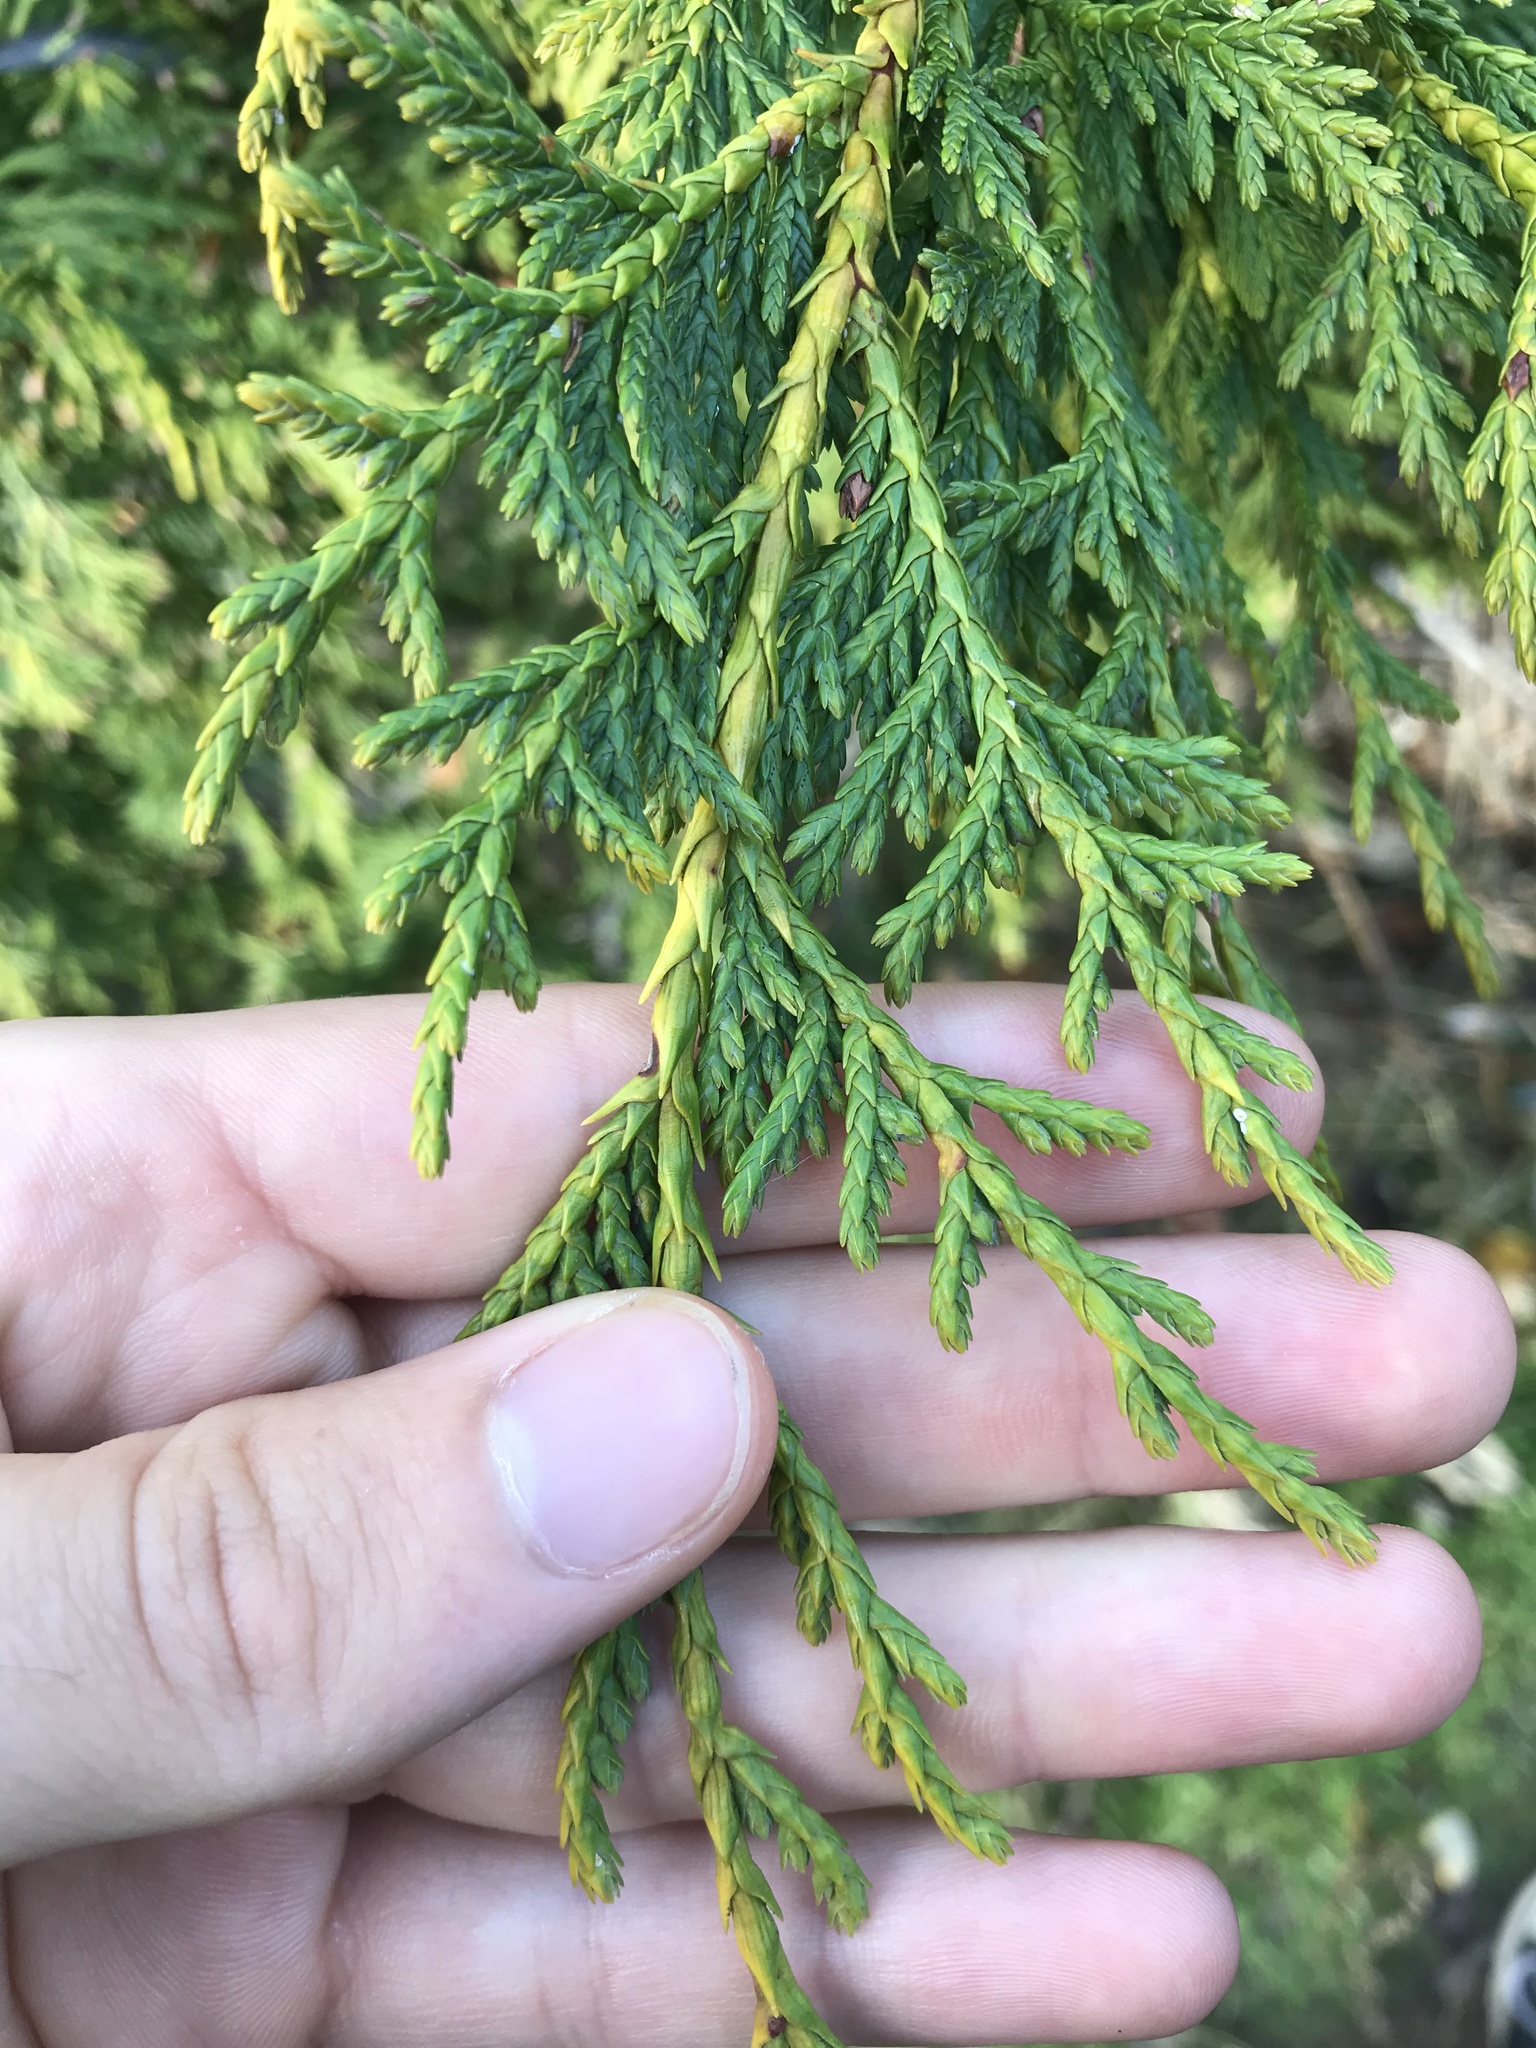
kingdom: Plantae
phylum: Tracheophyta
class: Pinopsida
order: Pinales
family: Cupressaceae
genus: Xanthocyparis
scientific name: Xanthocyparis nootkatensis
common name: Nootka cypress
